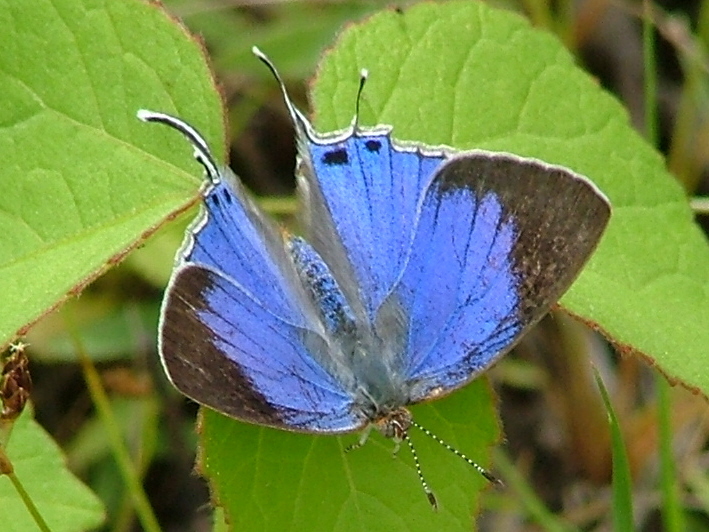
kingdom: Animalia
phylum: Arthropoda
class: Insecta
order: Lepidoptera
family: Lycaenidae
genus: Hemiolaus
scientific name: Hemiolaus caeculus
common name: Azure hairstreak
